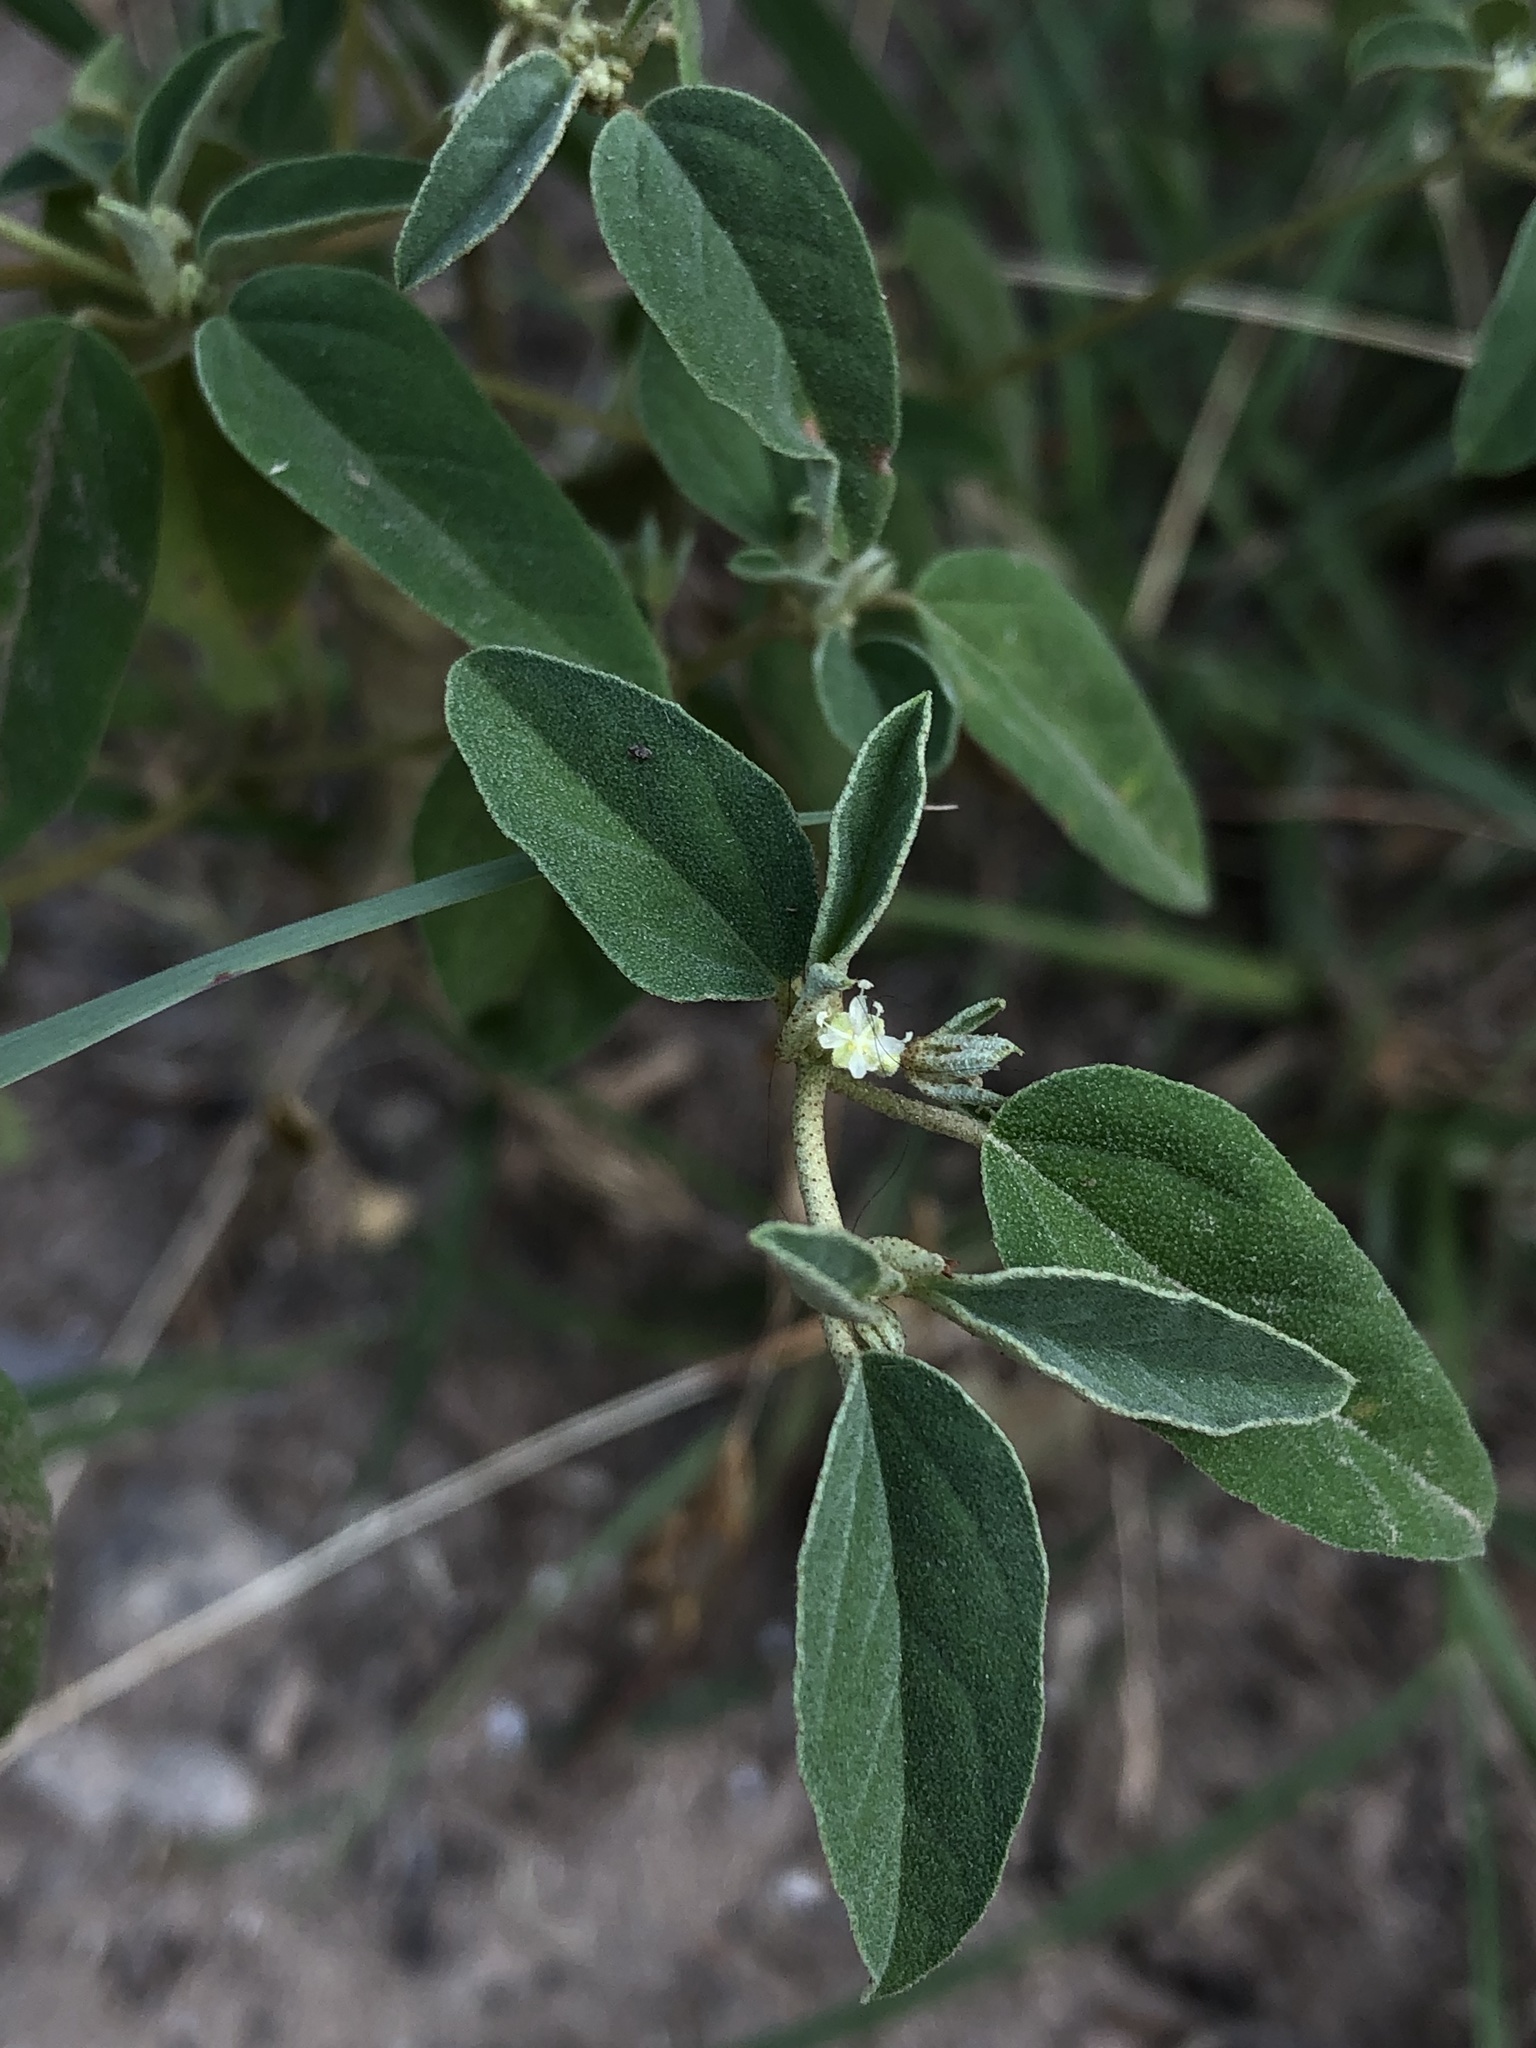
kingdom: Plantae
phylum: Tracheophyta
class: Magnoliopsida
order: Malpighiales
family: Euphorbiaceae
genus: Croton
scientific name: Croton monanthogynus
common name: One-seed croton
